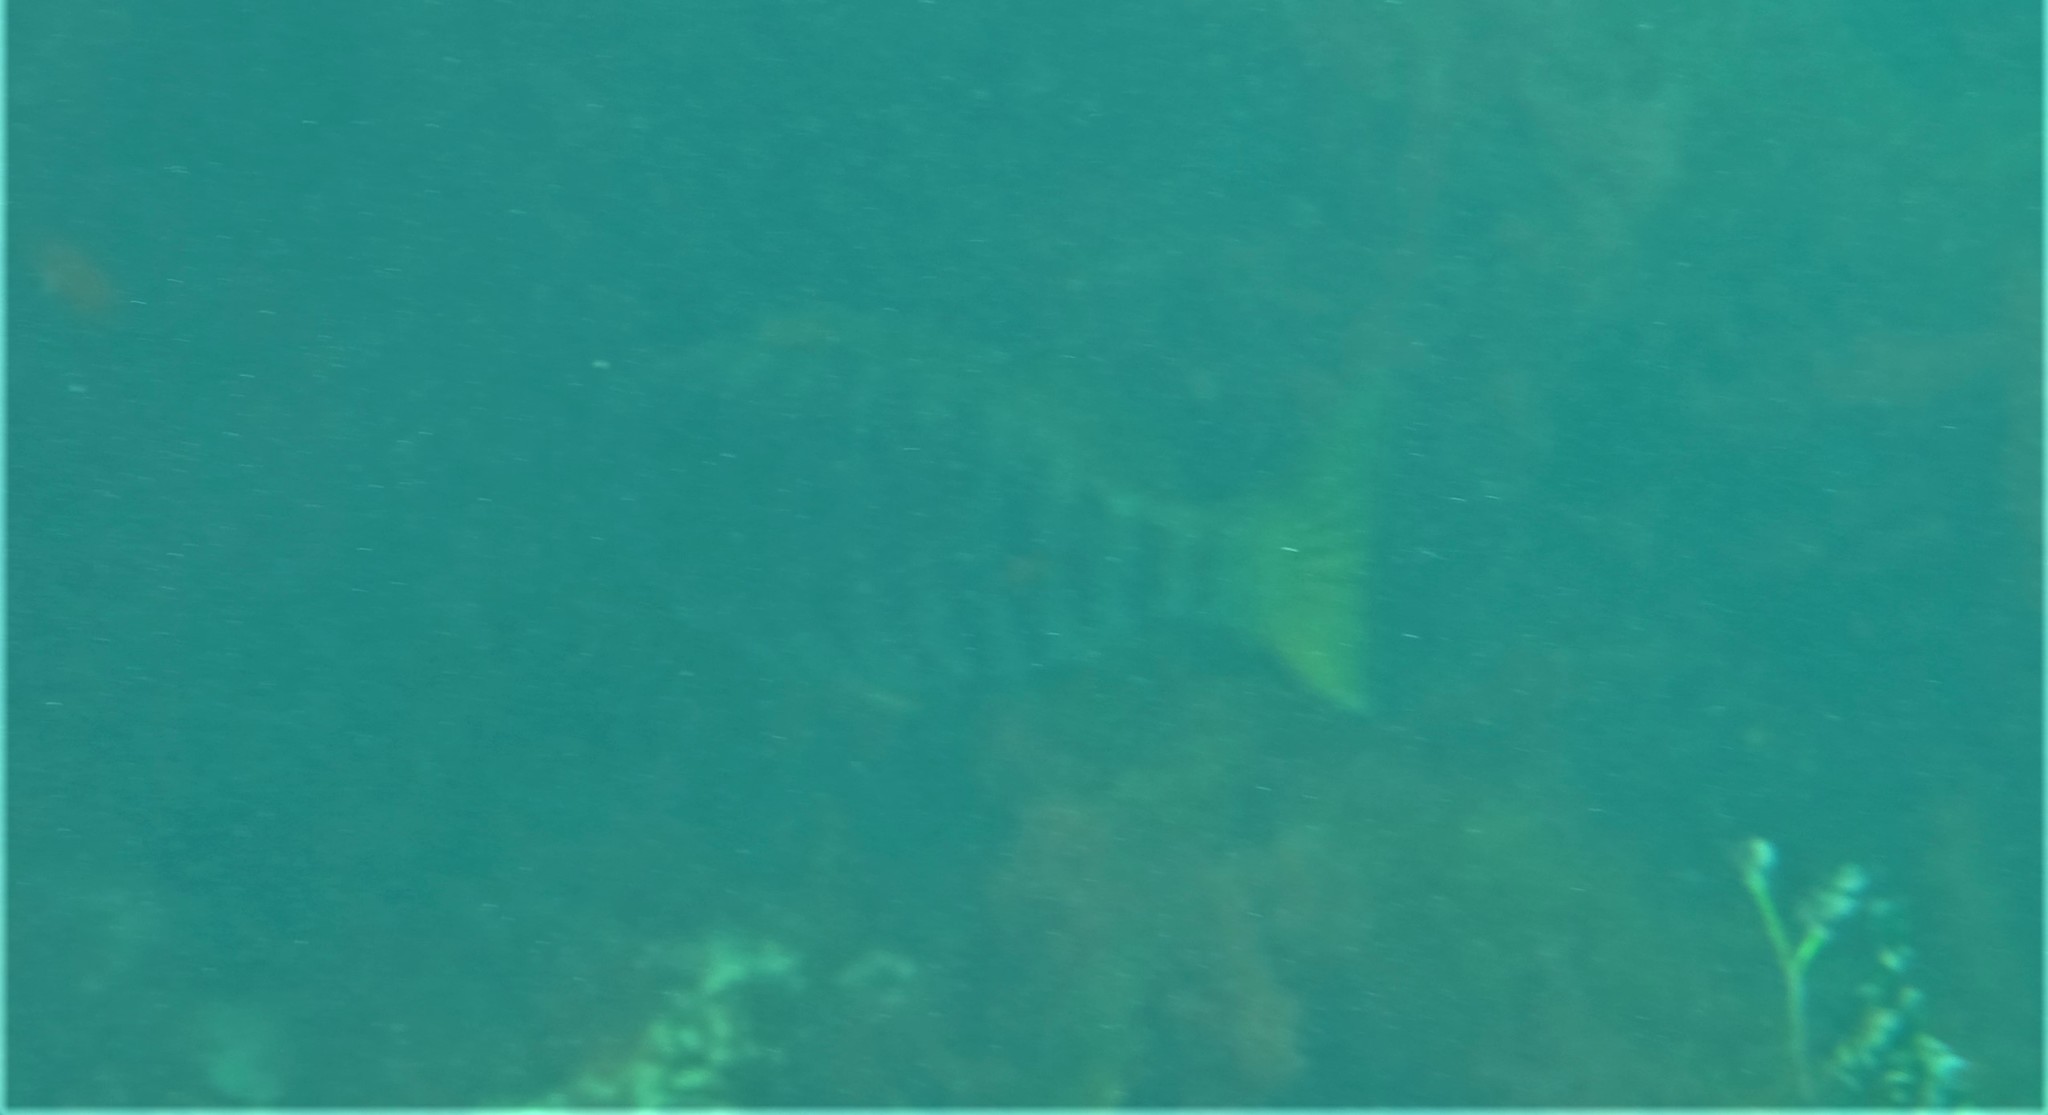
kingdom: Animalia
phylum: Chordata
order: Perciformes
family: Kyphosidae
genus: Girella
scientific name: Girella zebra
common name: Stripey bream
